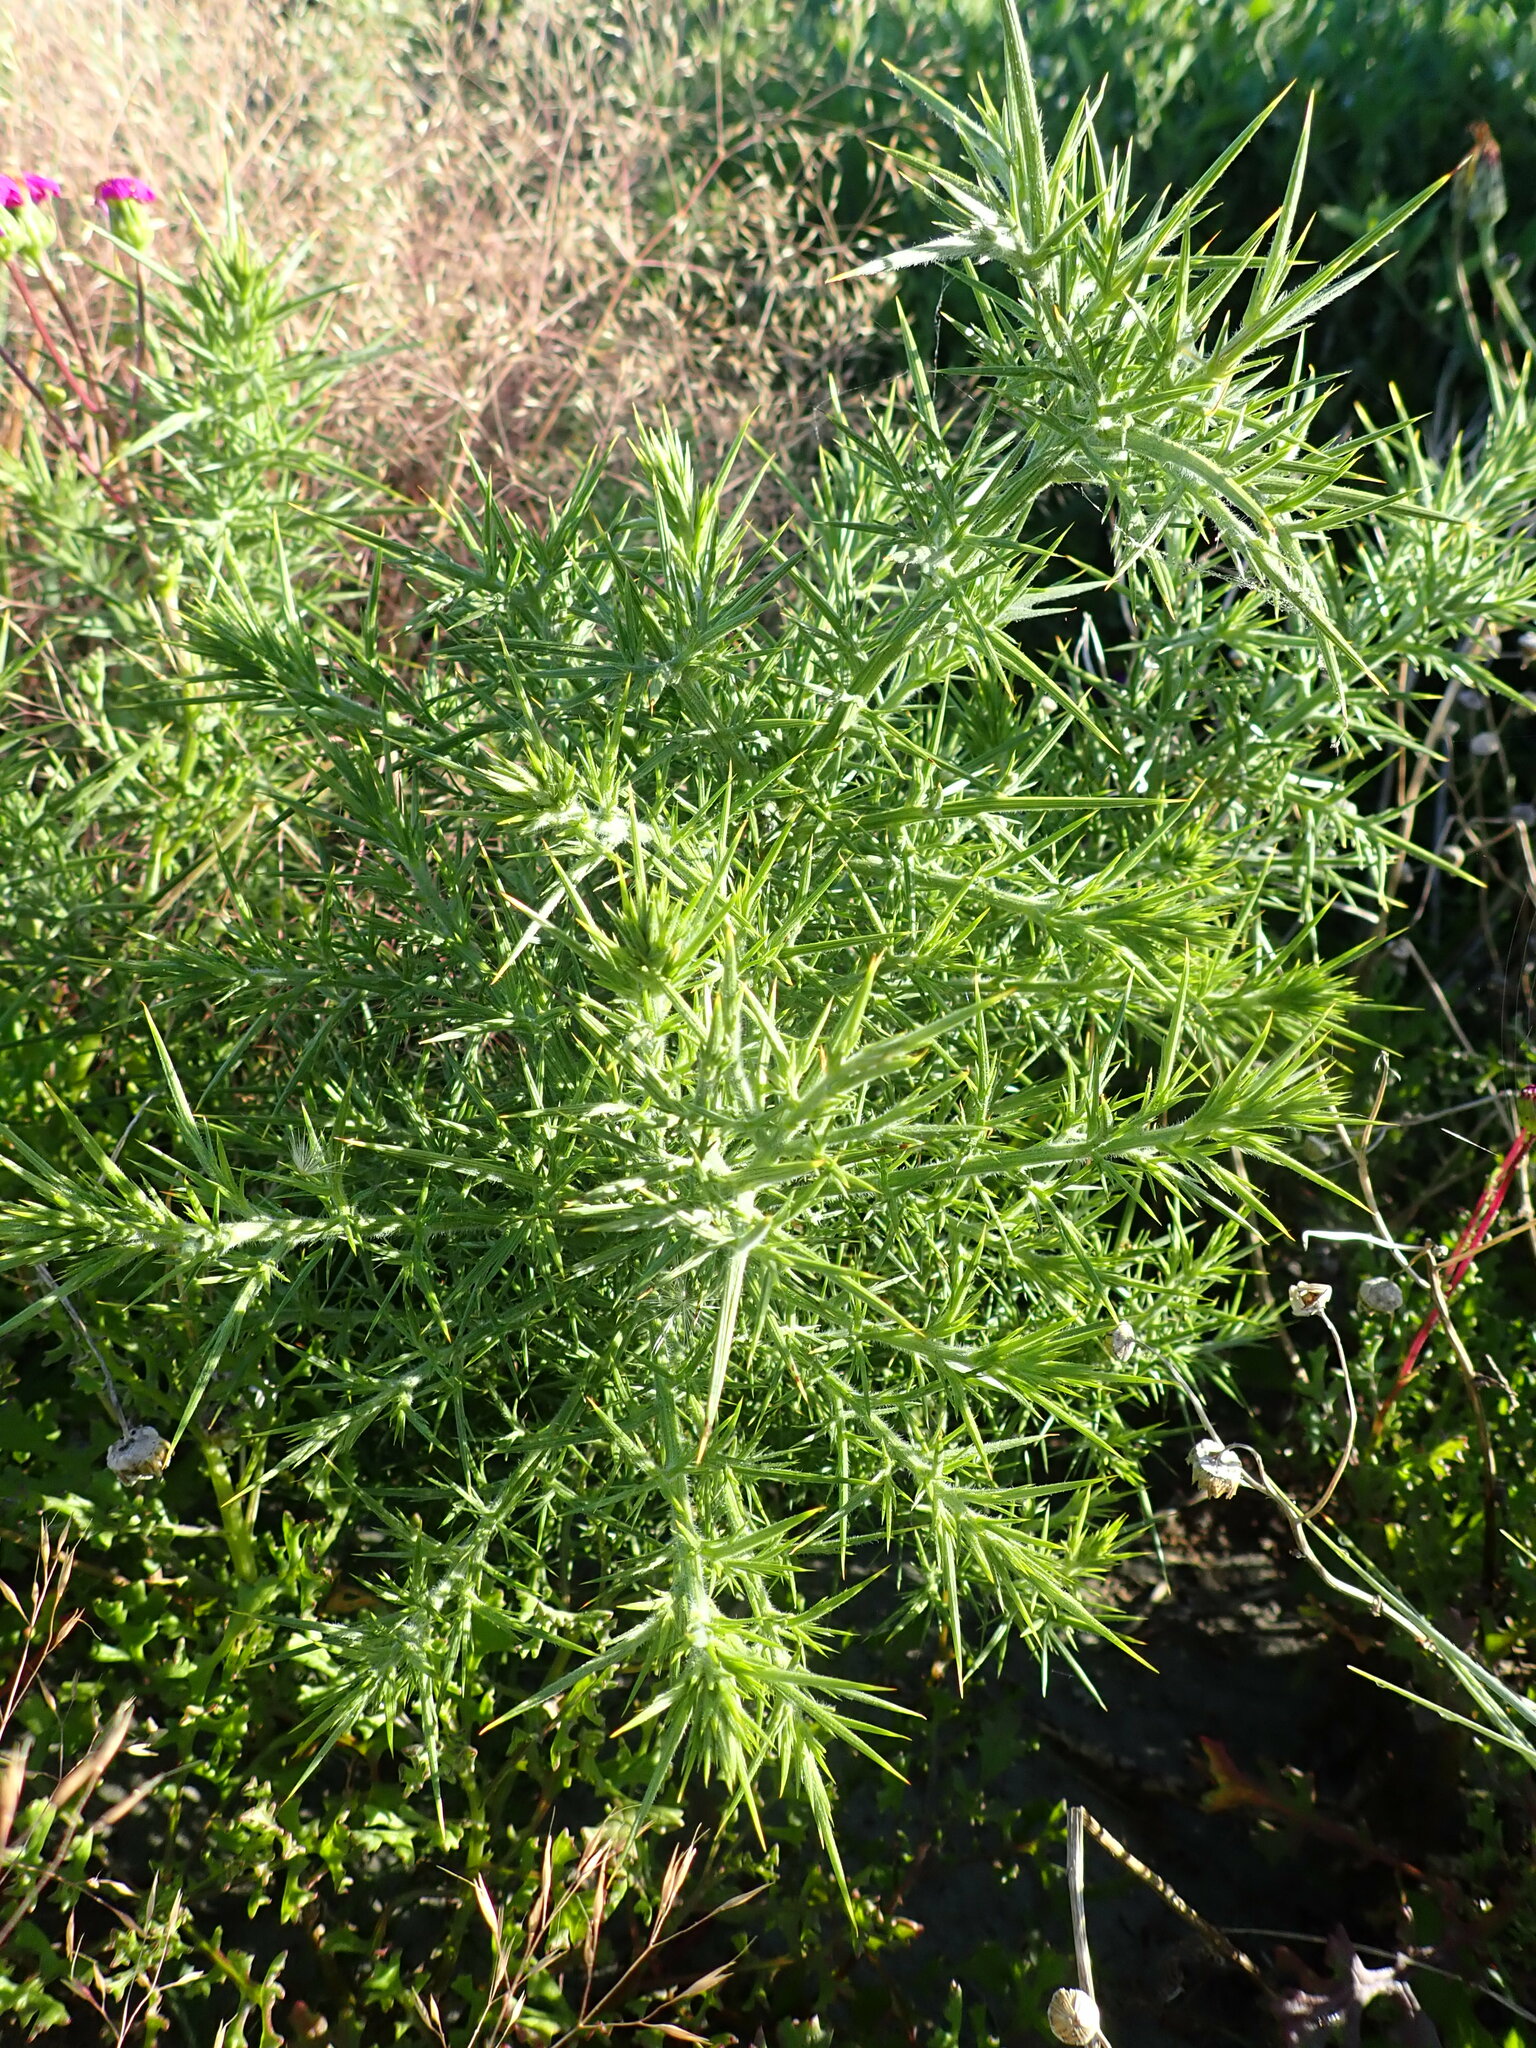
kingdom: Plantae
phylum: Tracheophyta
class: Magnoliopsida
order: Fabales
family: Fabaceae
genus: Ulex
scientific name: Ulex europaeus
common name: Common gorse
